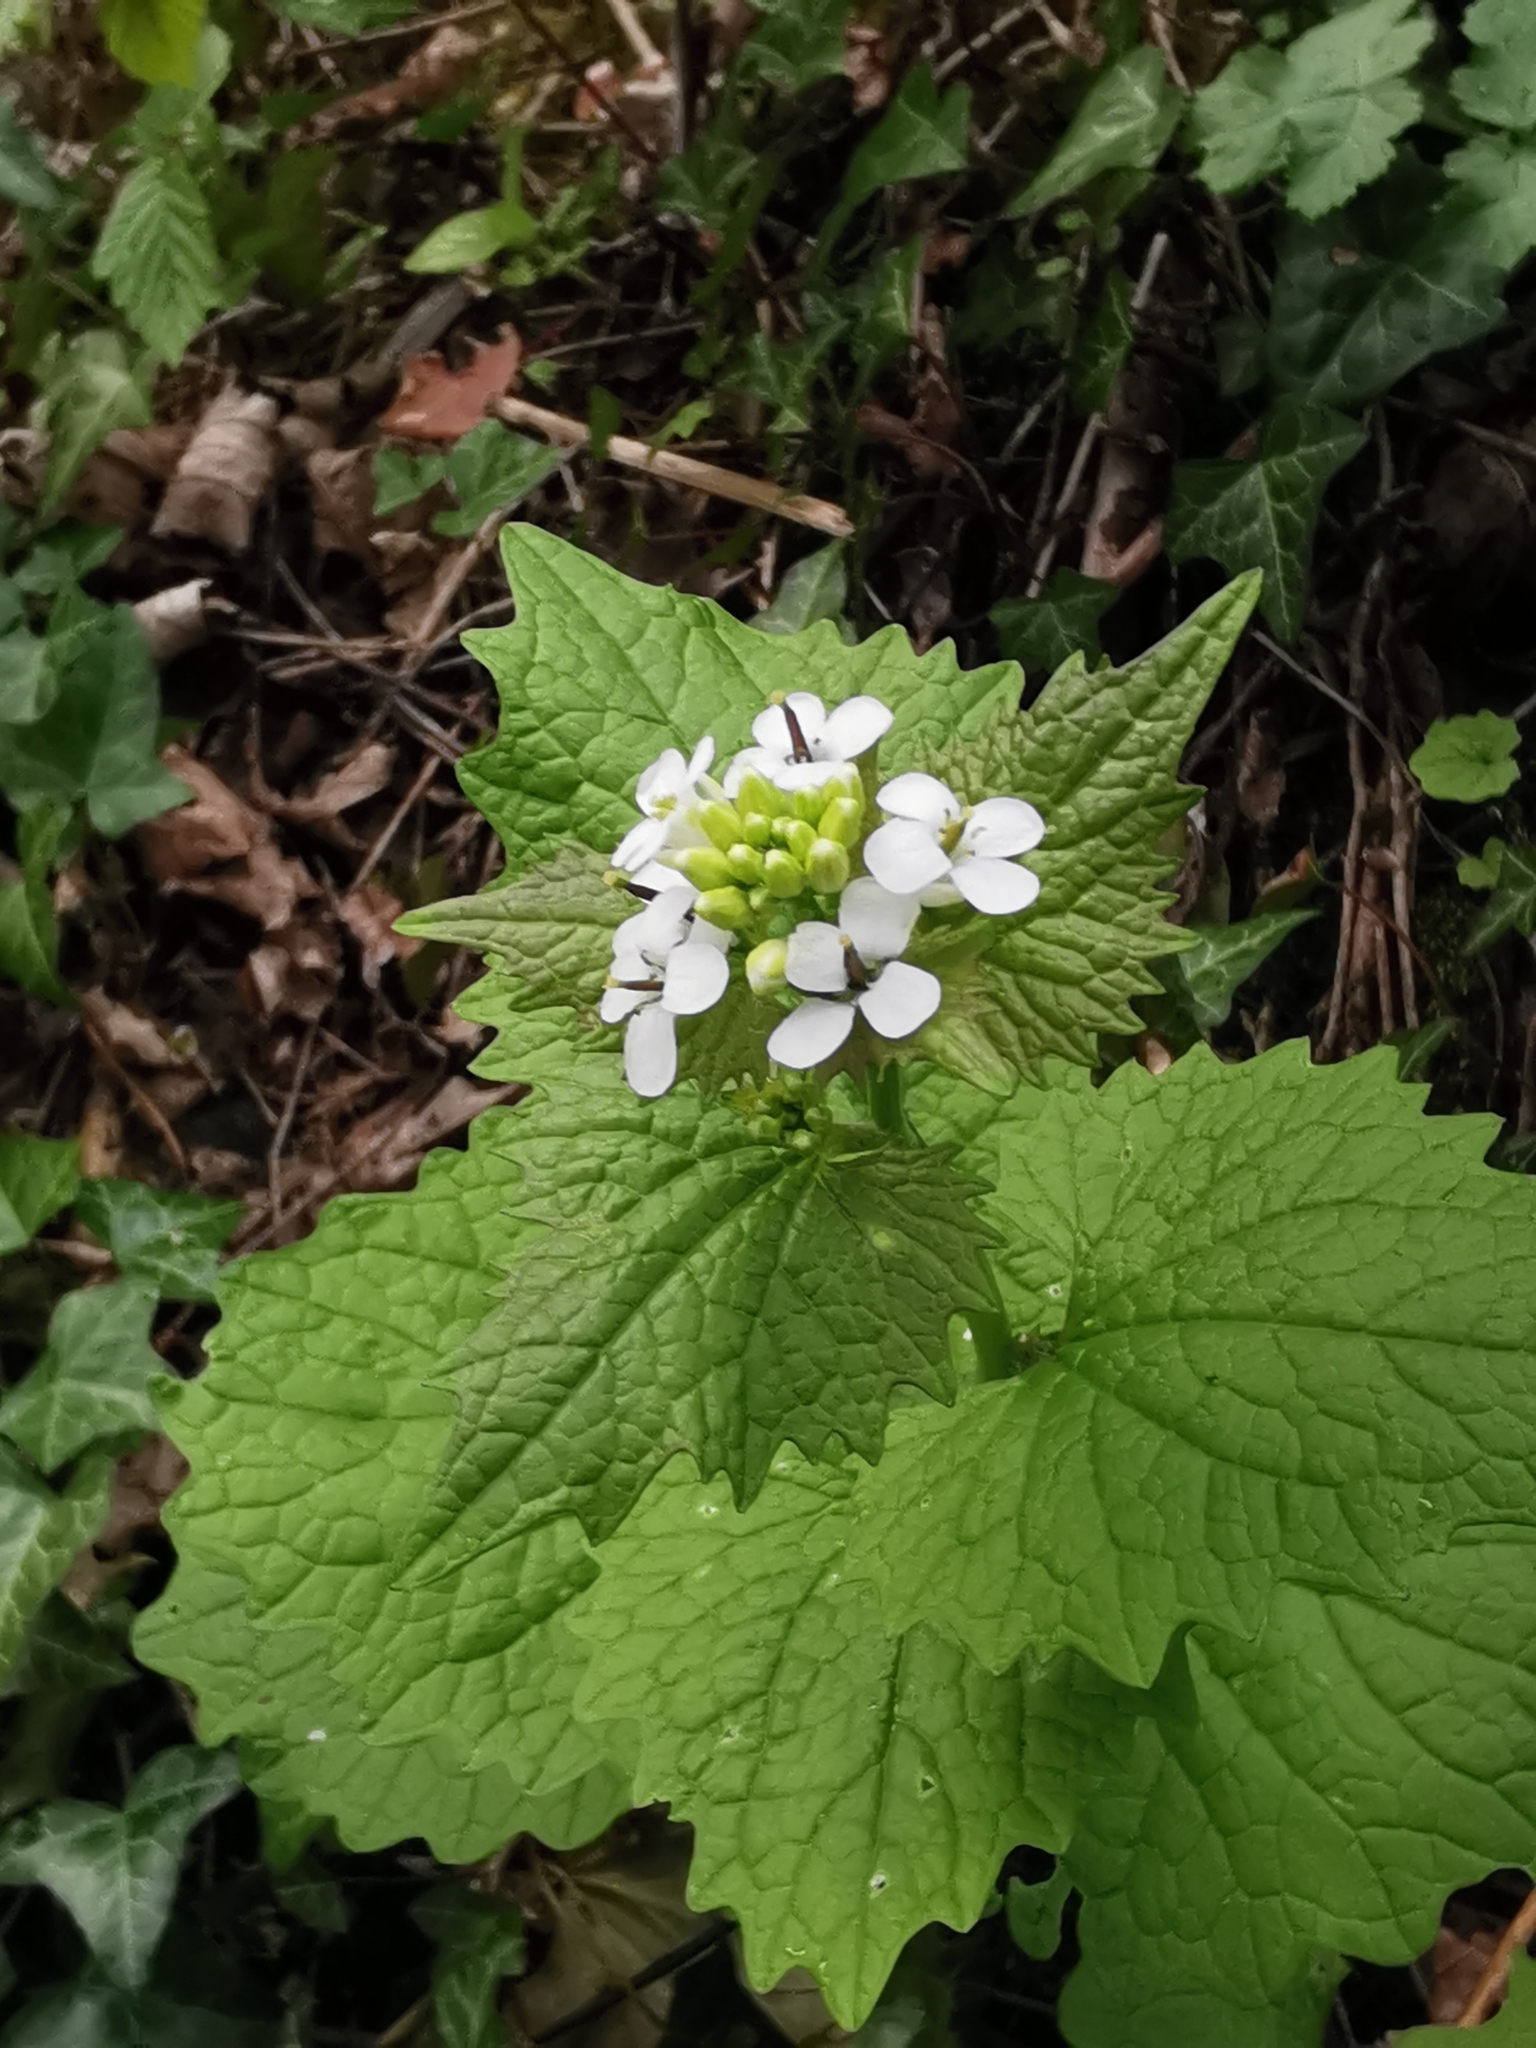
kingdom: Plantae
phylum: Tracheophyta
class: Magnoliopsida
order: Brassicales
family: Brassicaceae
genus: Alliaria
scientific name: Alliaria petiolata
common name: Garlic mustard
